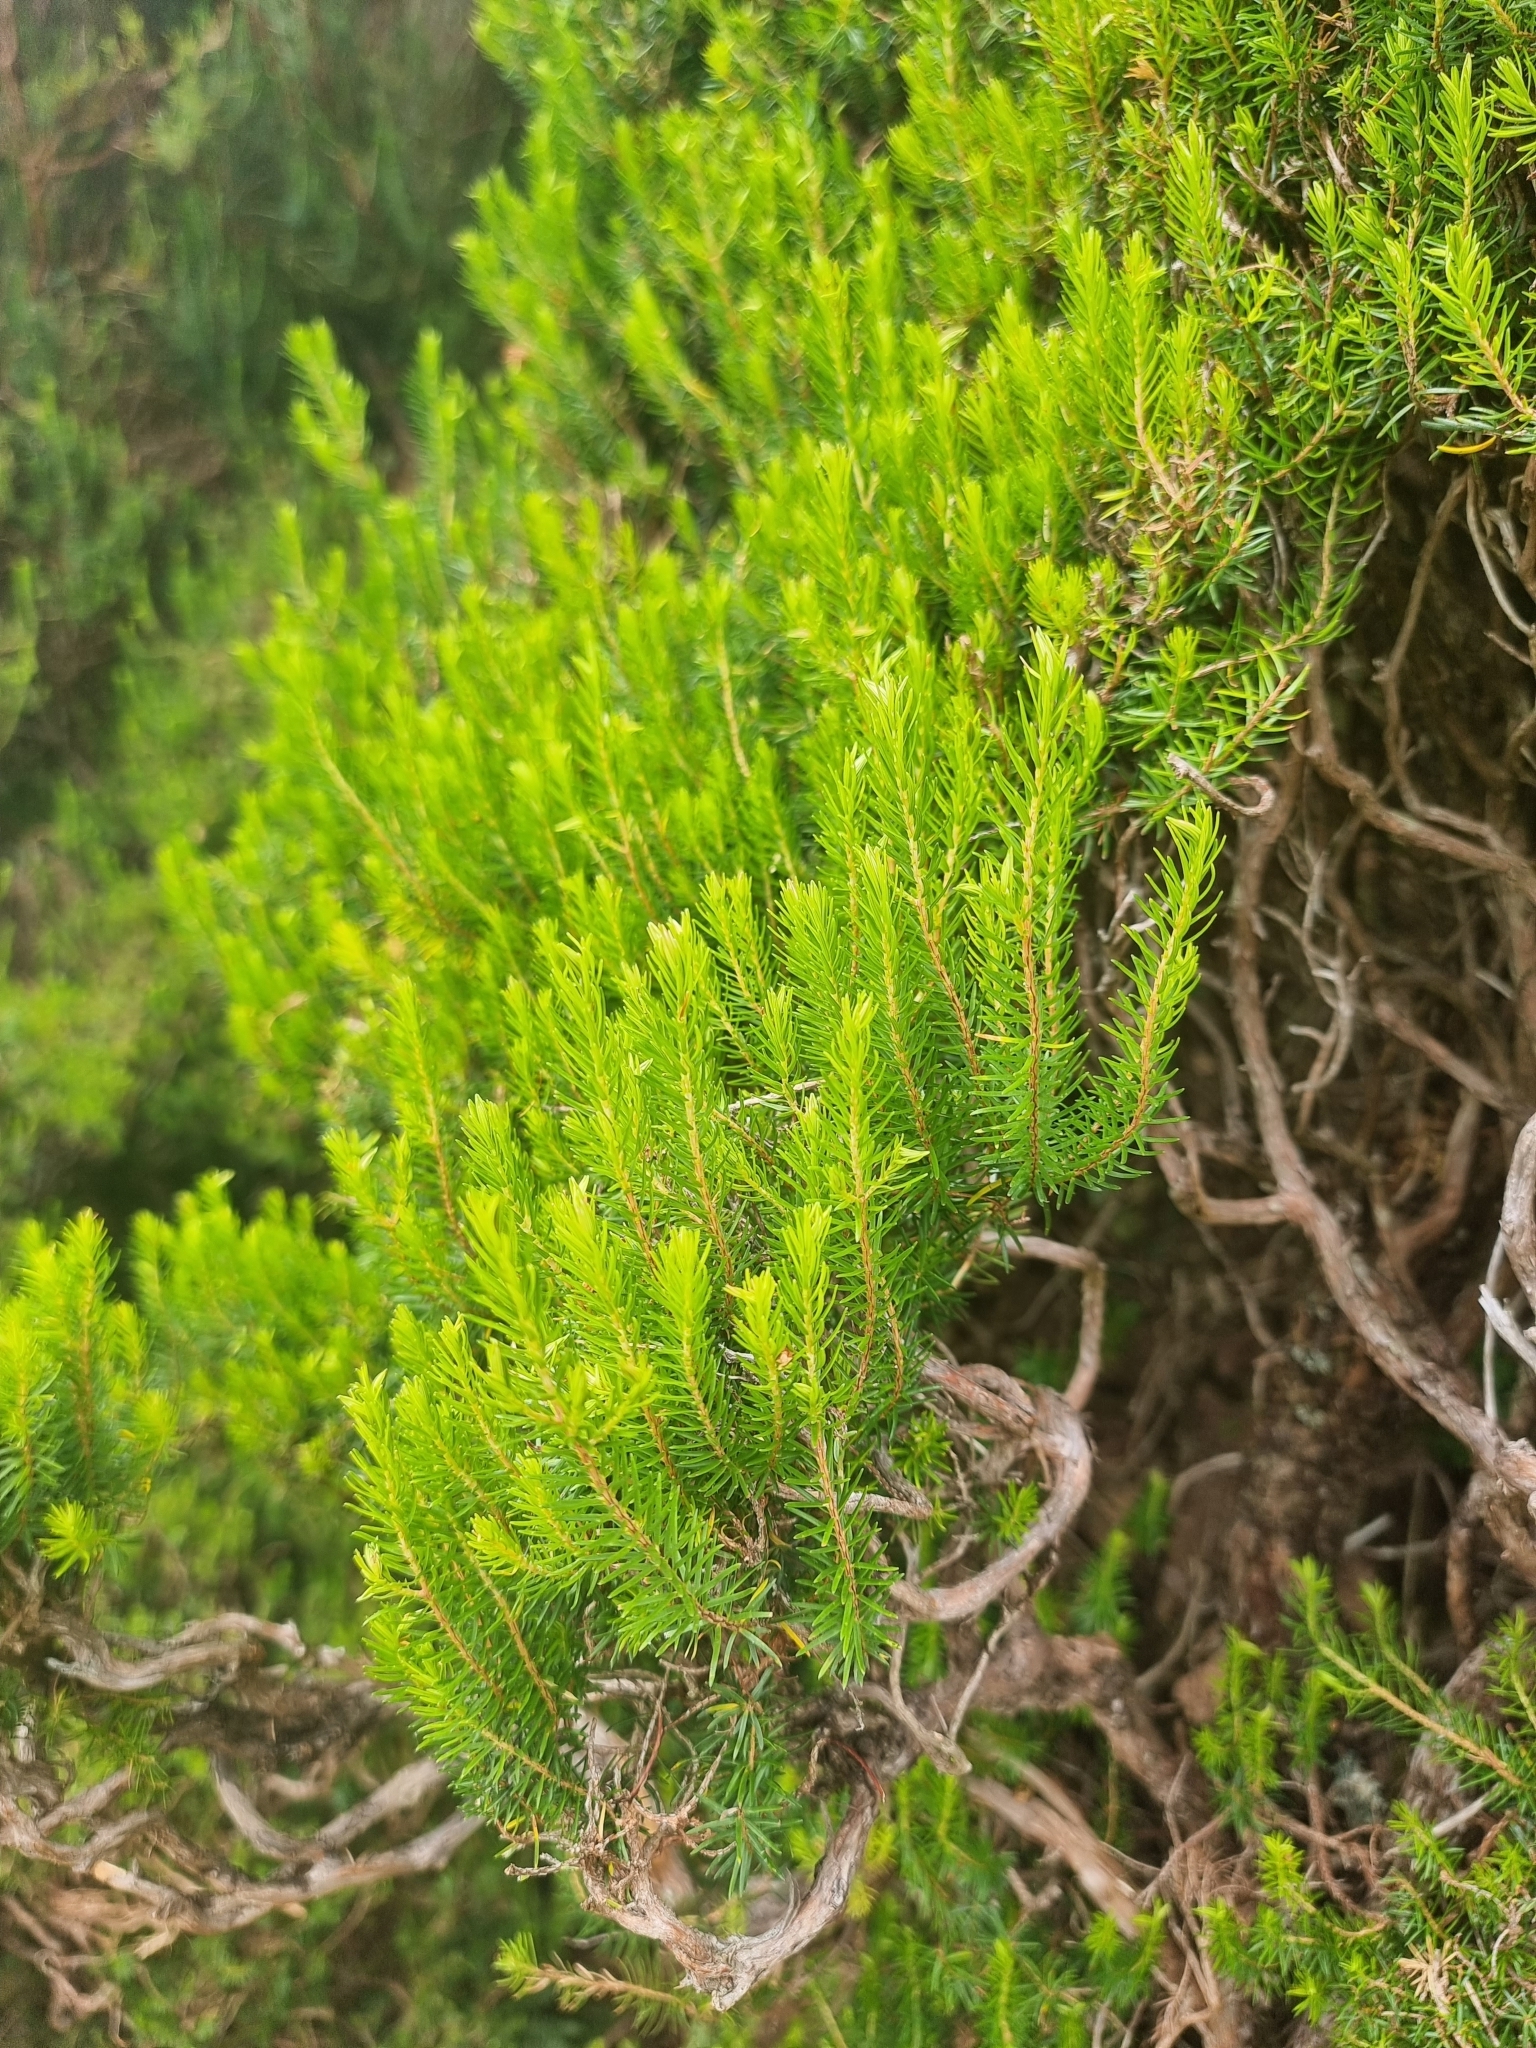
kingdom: Plantae
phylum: Tracheophyta
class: Magnoliopsida
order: Ericales
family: Ericaceae
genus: Erica
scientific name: Erica platycodon
